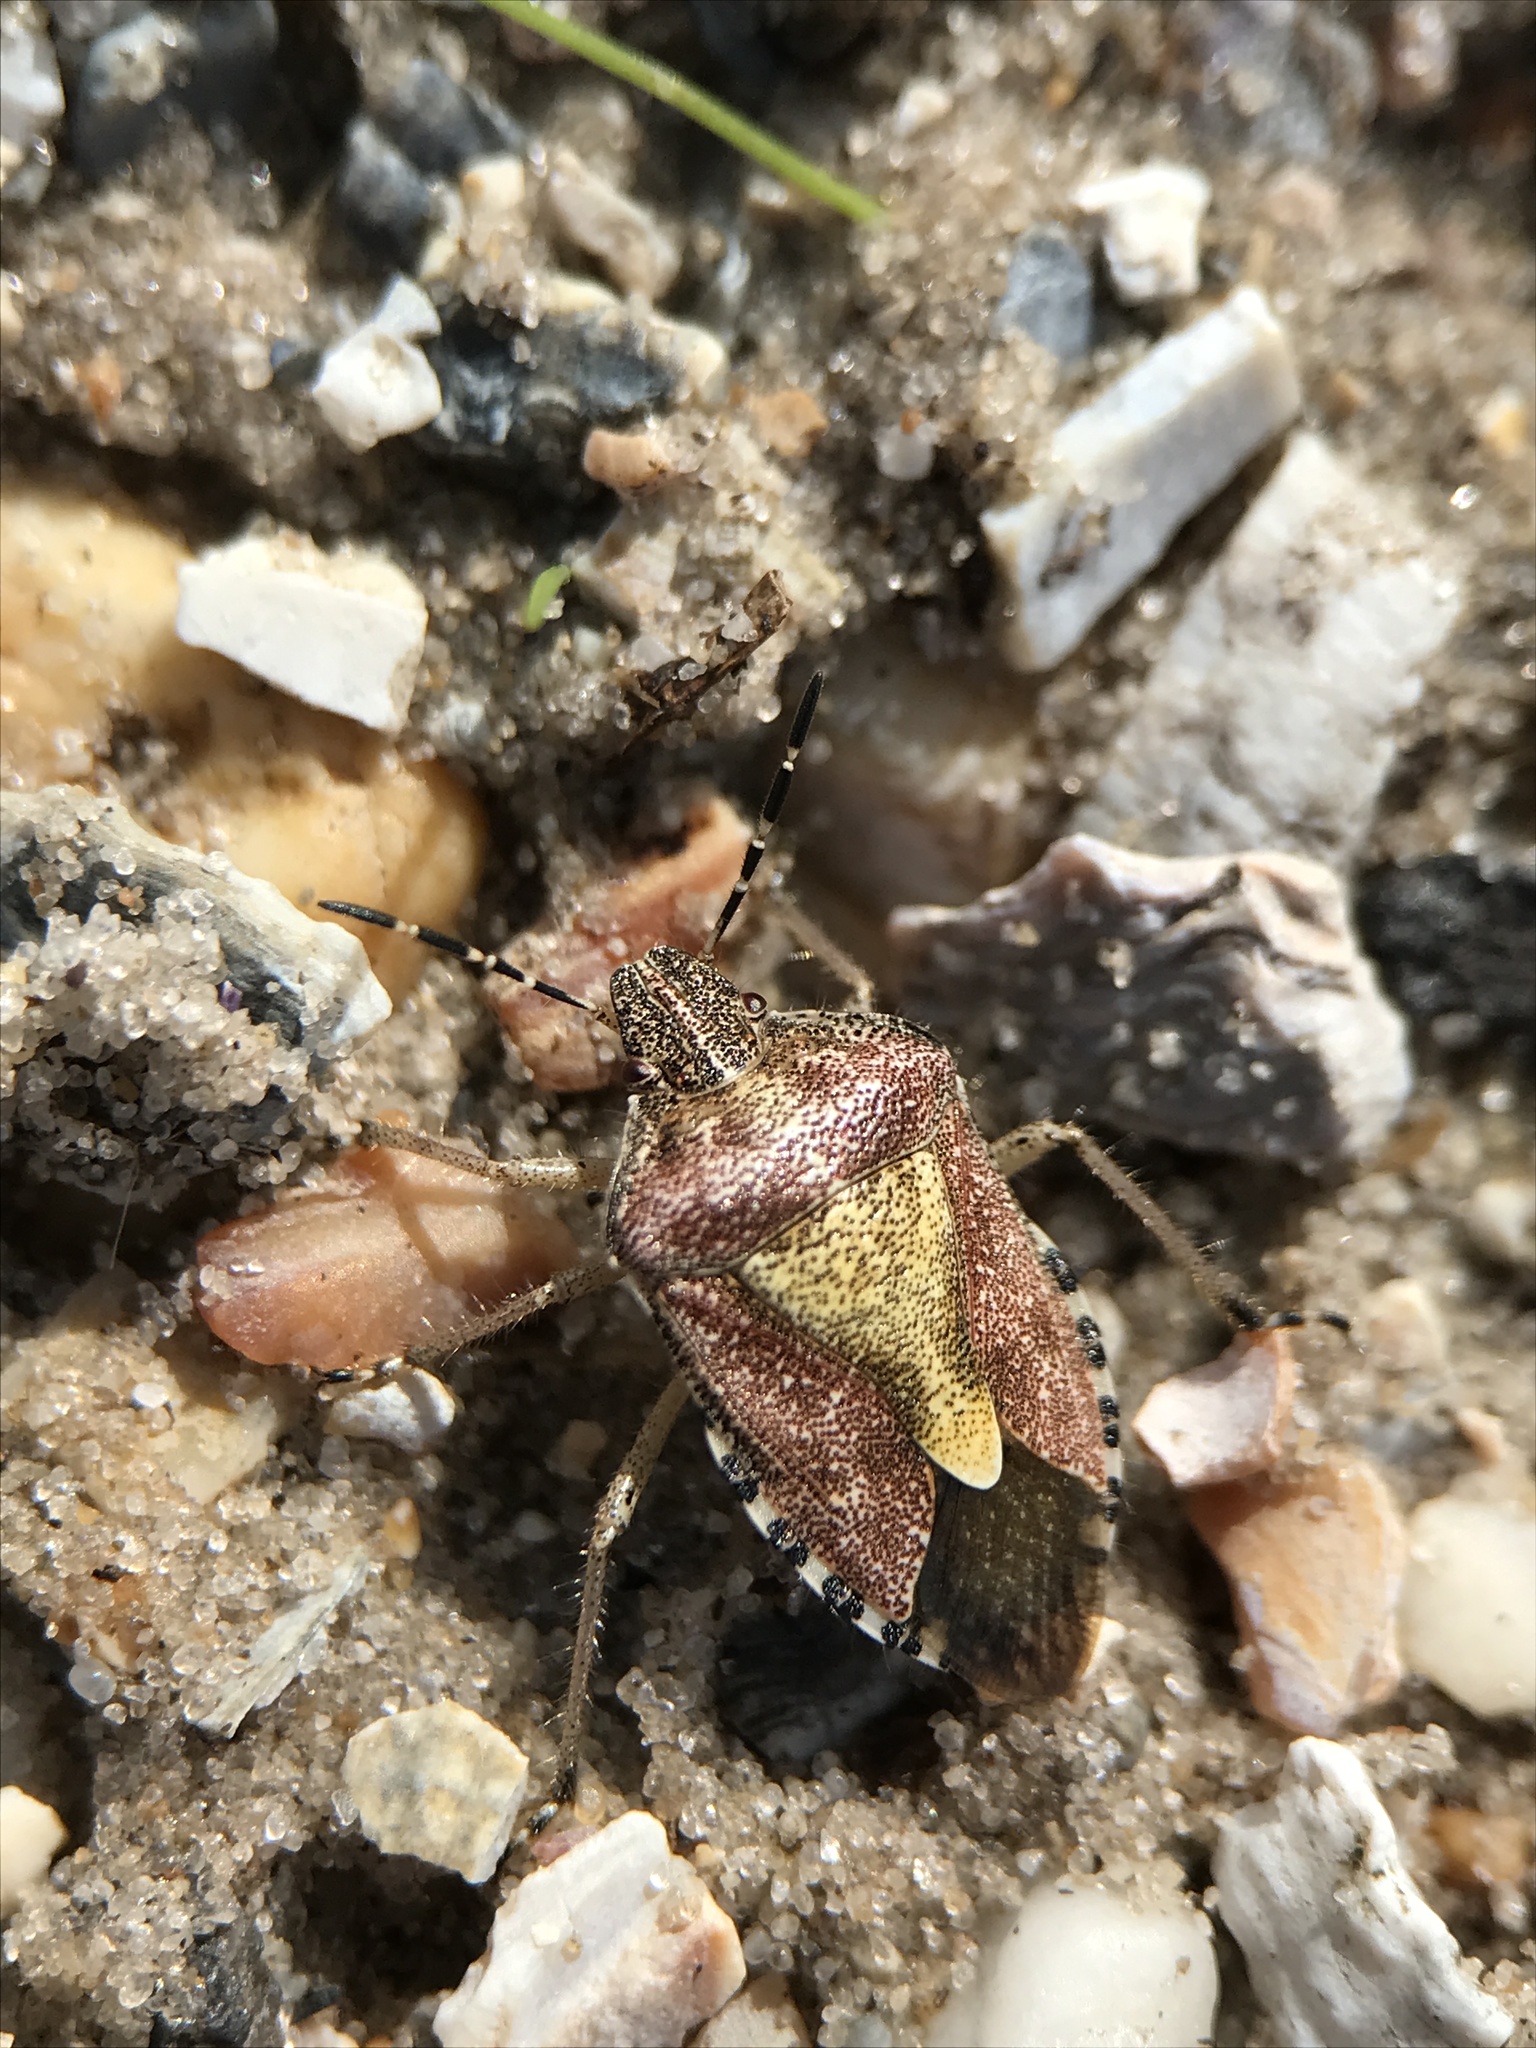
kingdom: Animalia
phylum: Arthropoda
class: Insecta
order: Hemiptera
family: Pentatomidae
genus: Dolycoris
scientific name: Dolycoris baccarum
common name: Sloe bug
